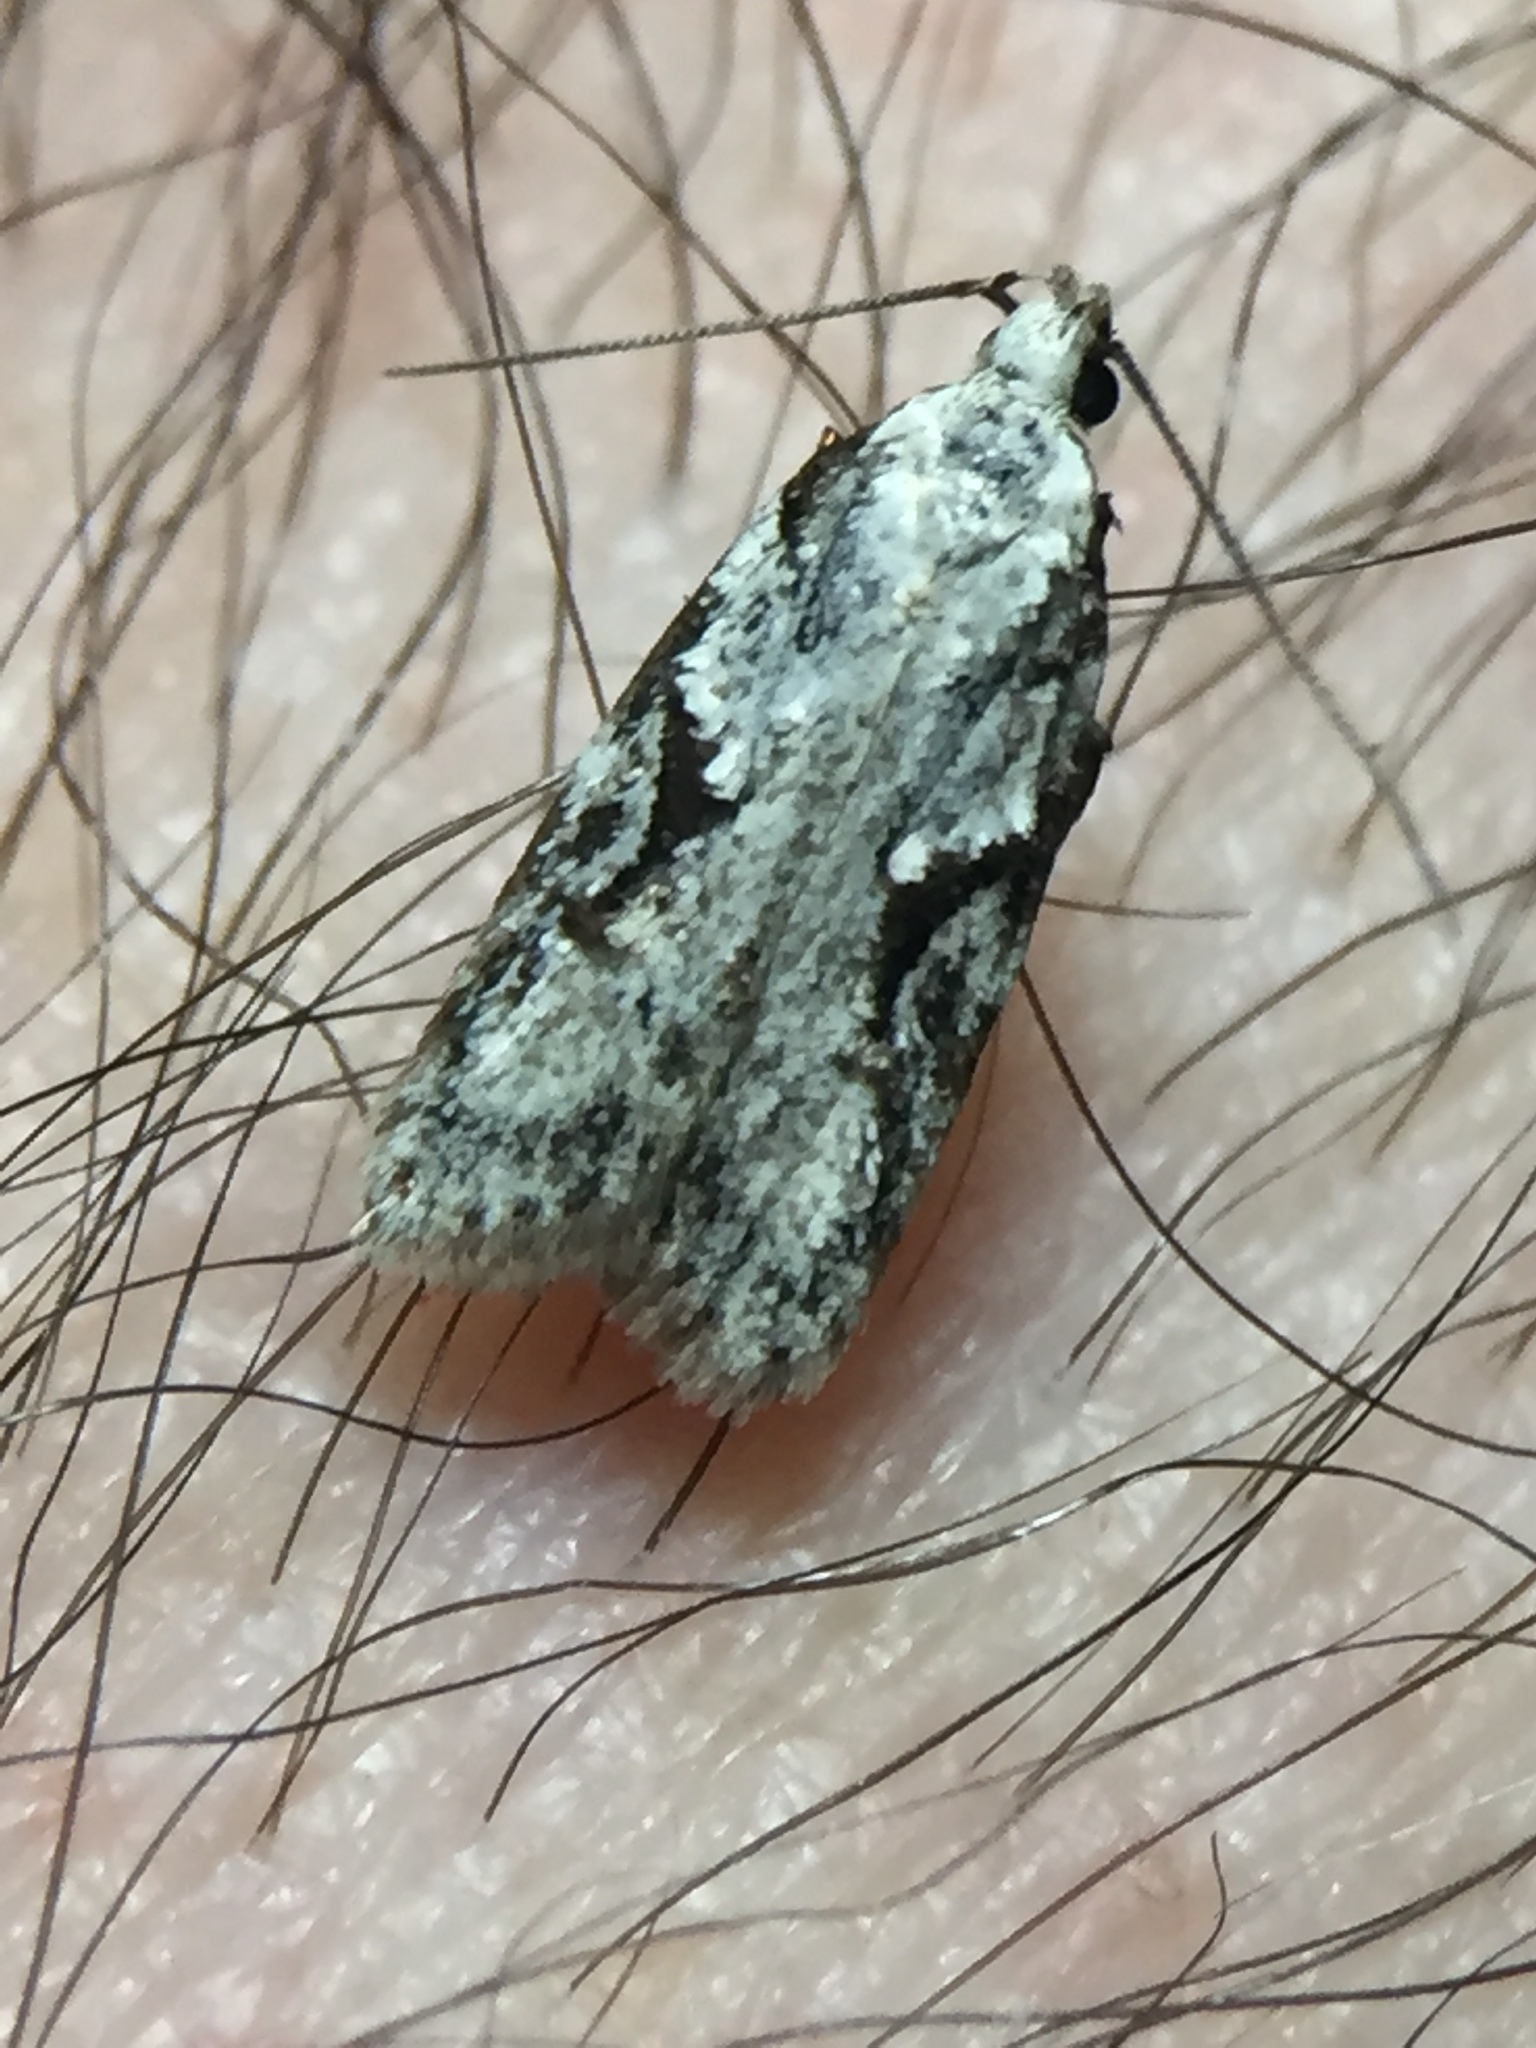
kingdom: Animalia
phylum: Arthropoda
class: Insecta
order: Lepidoptera
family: Oecophoridae
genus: Izatha
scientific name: Izatha mesoschista
